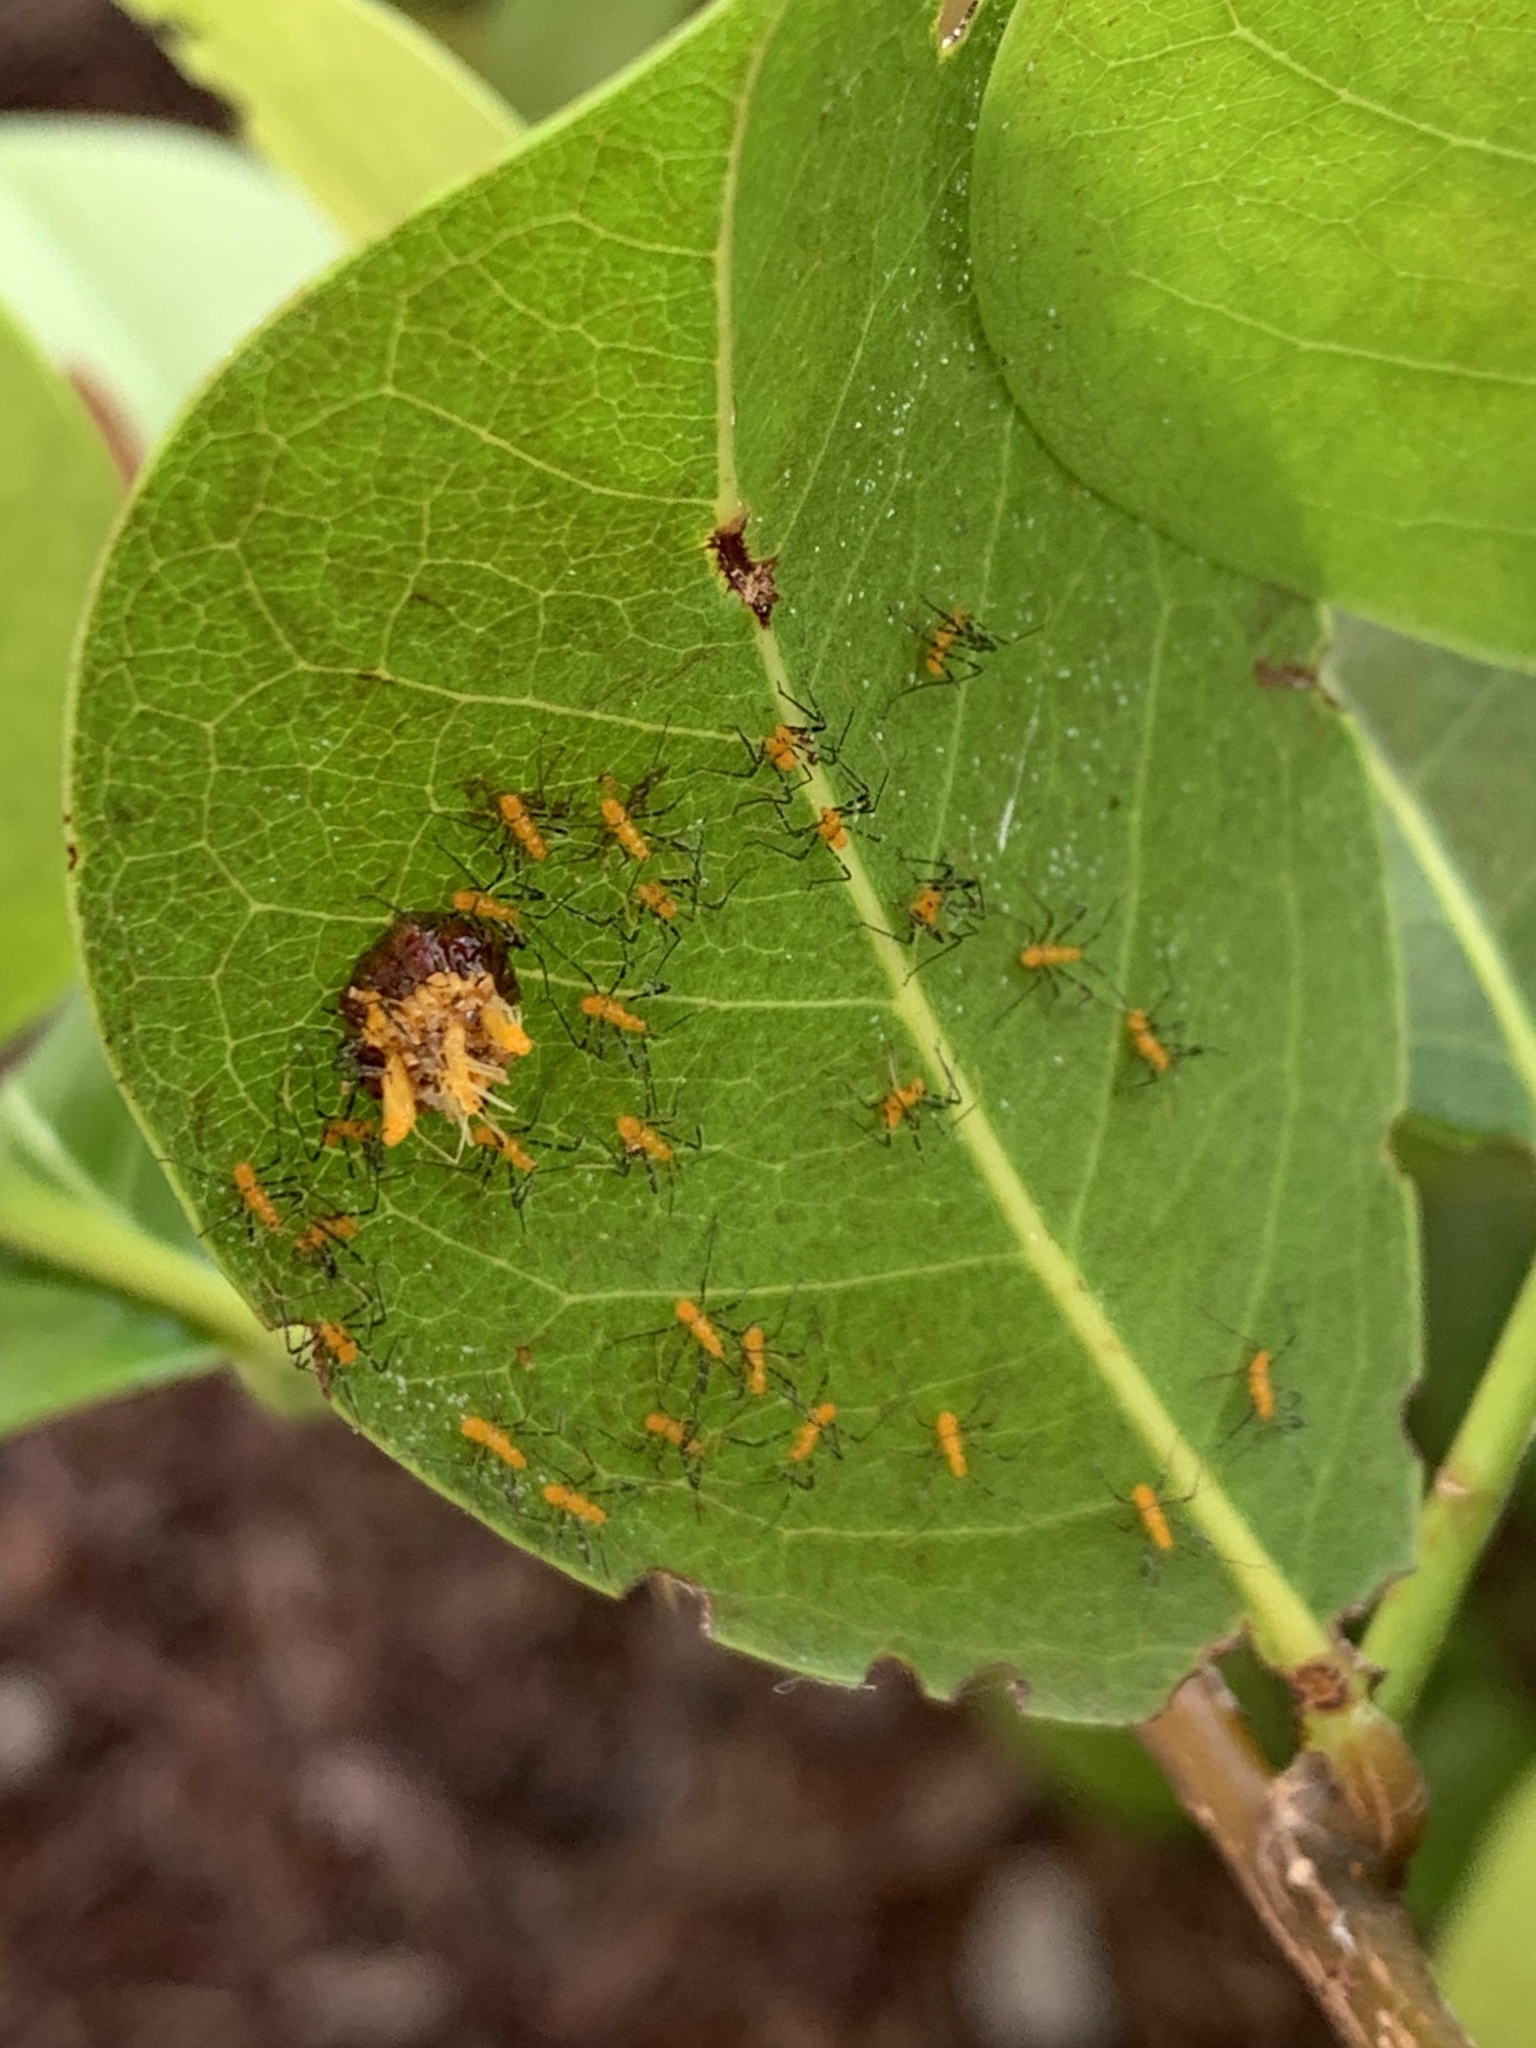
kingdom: Animalia
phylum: Arthropoda
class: Insecta
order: Hemiptera
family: Reduviidae
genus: Zelus
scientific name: Zelus longipes
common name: Milkweed assassin bug
